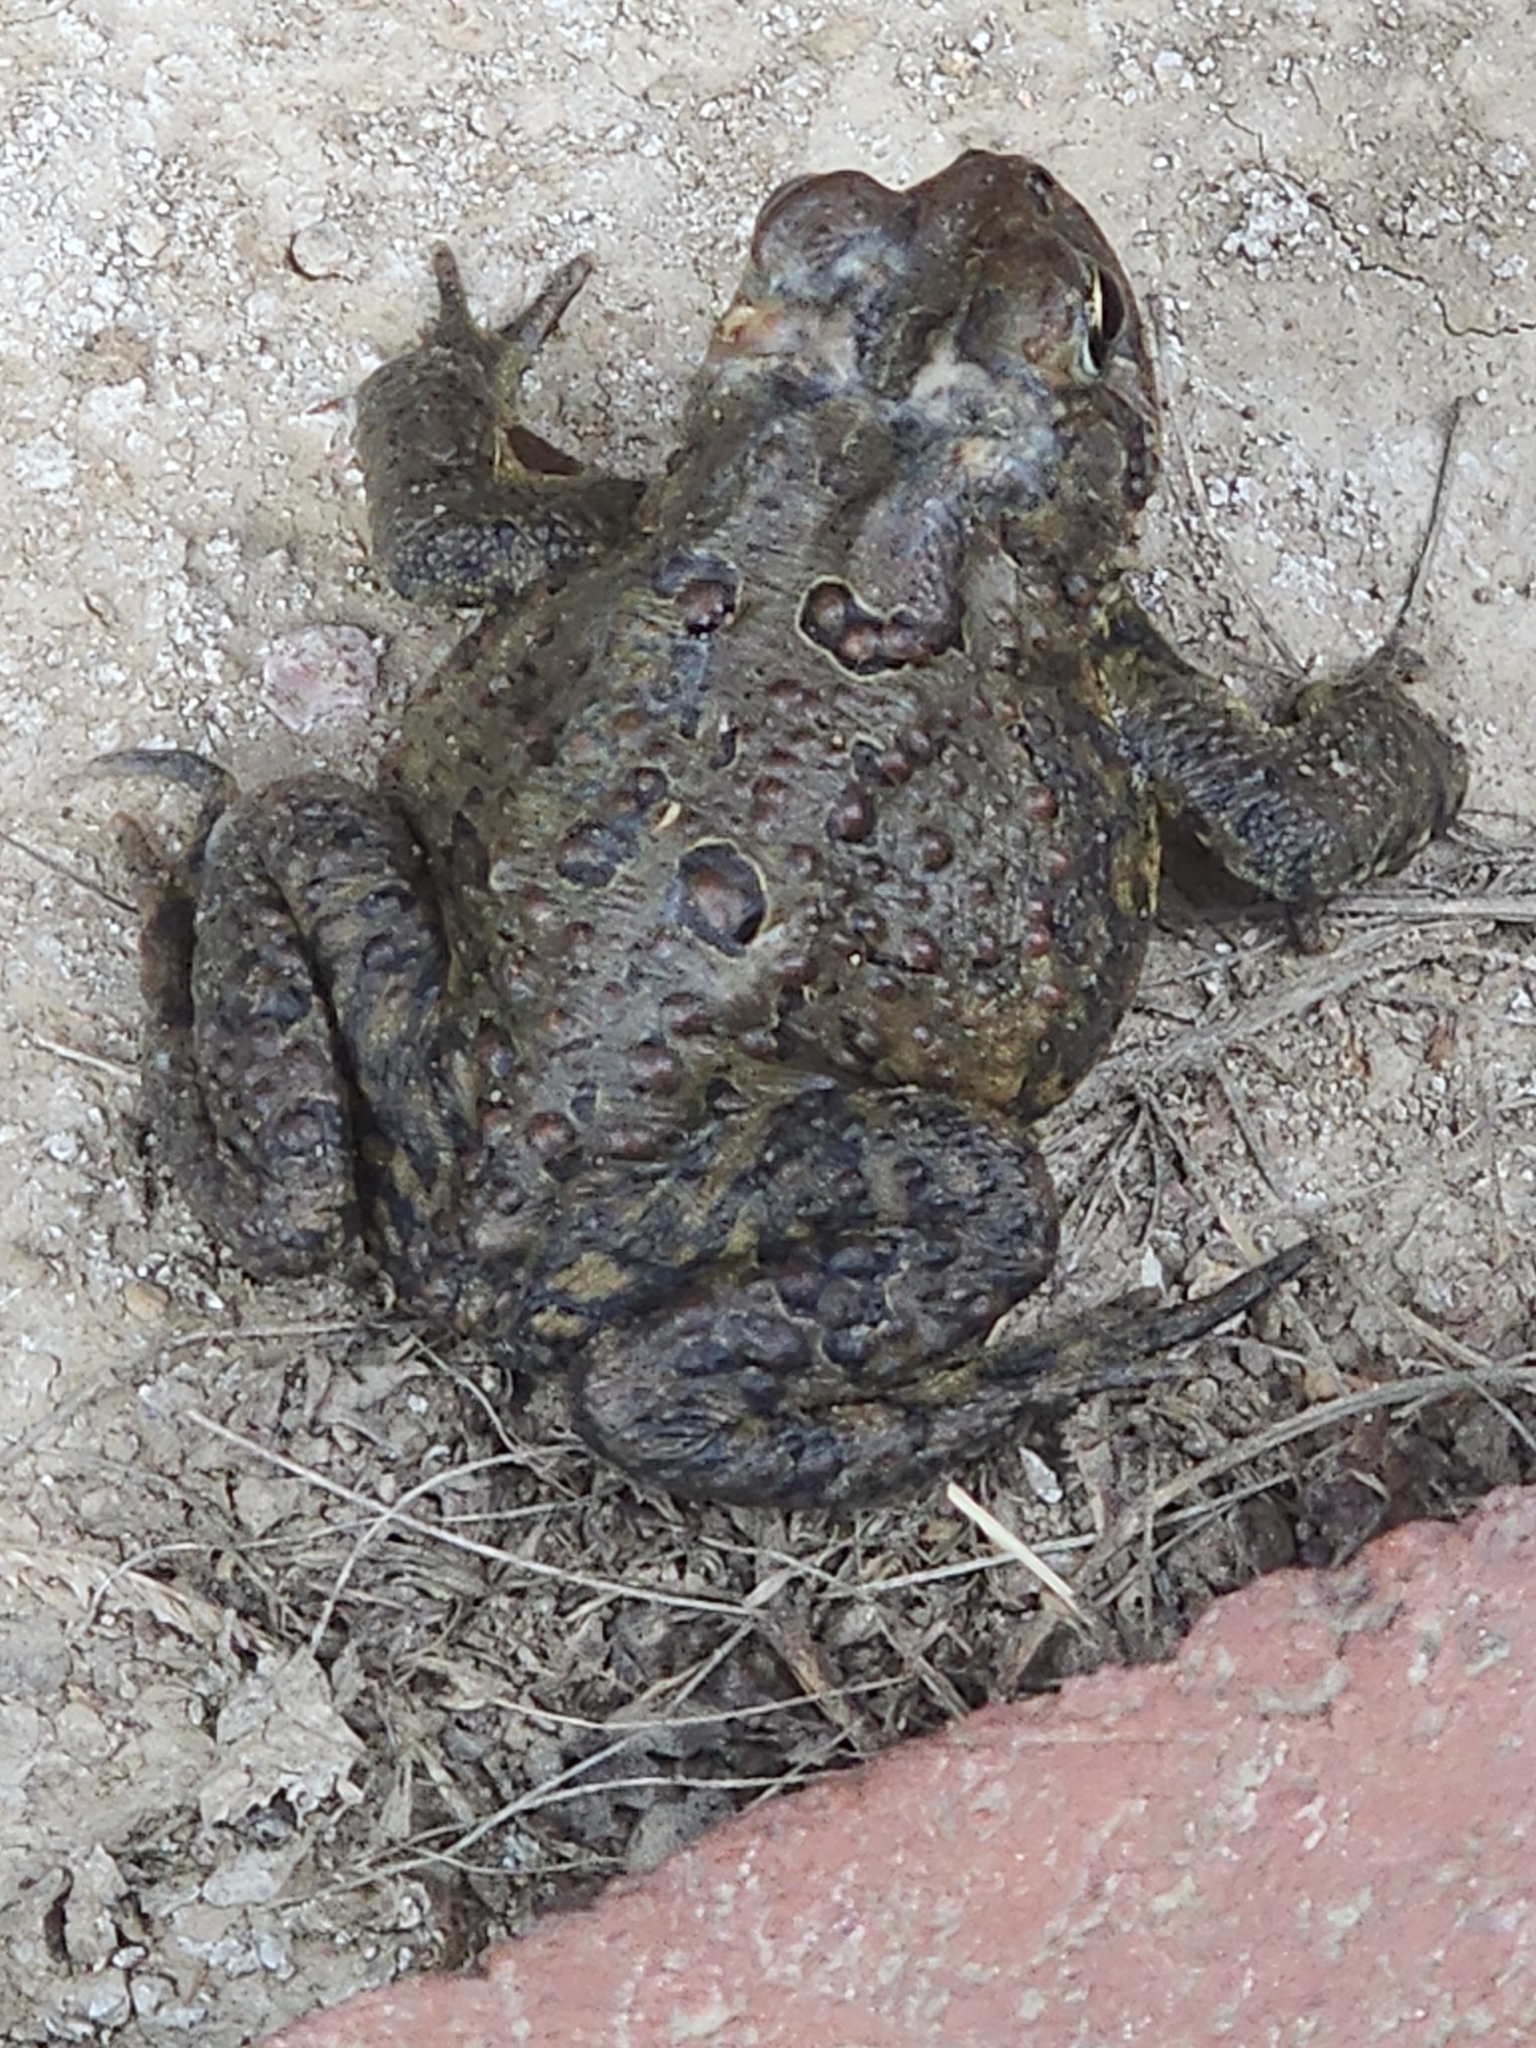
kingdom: Animalia
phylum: Chordata
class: Amphibia
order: Anura
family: Bufonidae
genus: Anaxyrus
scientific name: Anaxyrus americanus
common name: American toad
